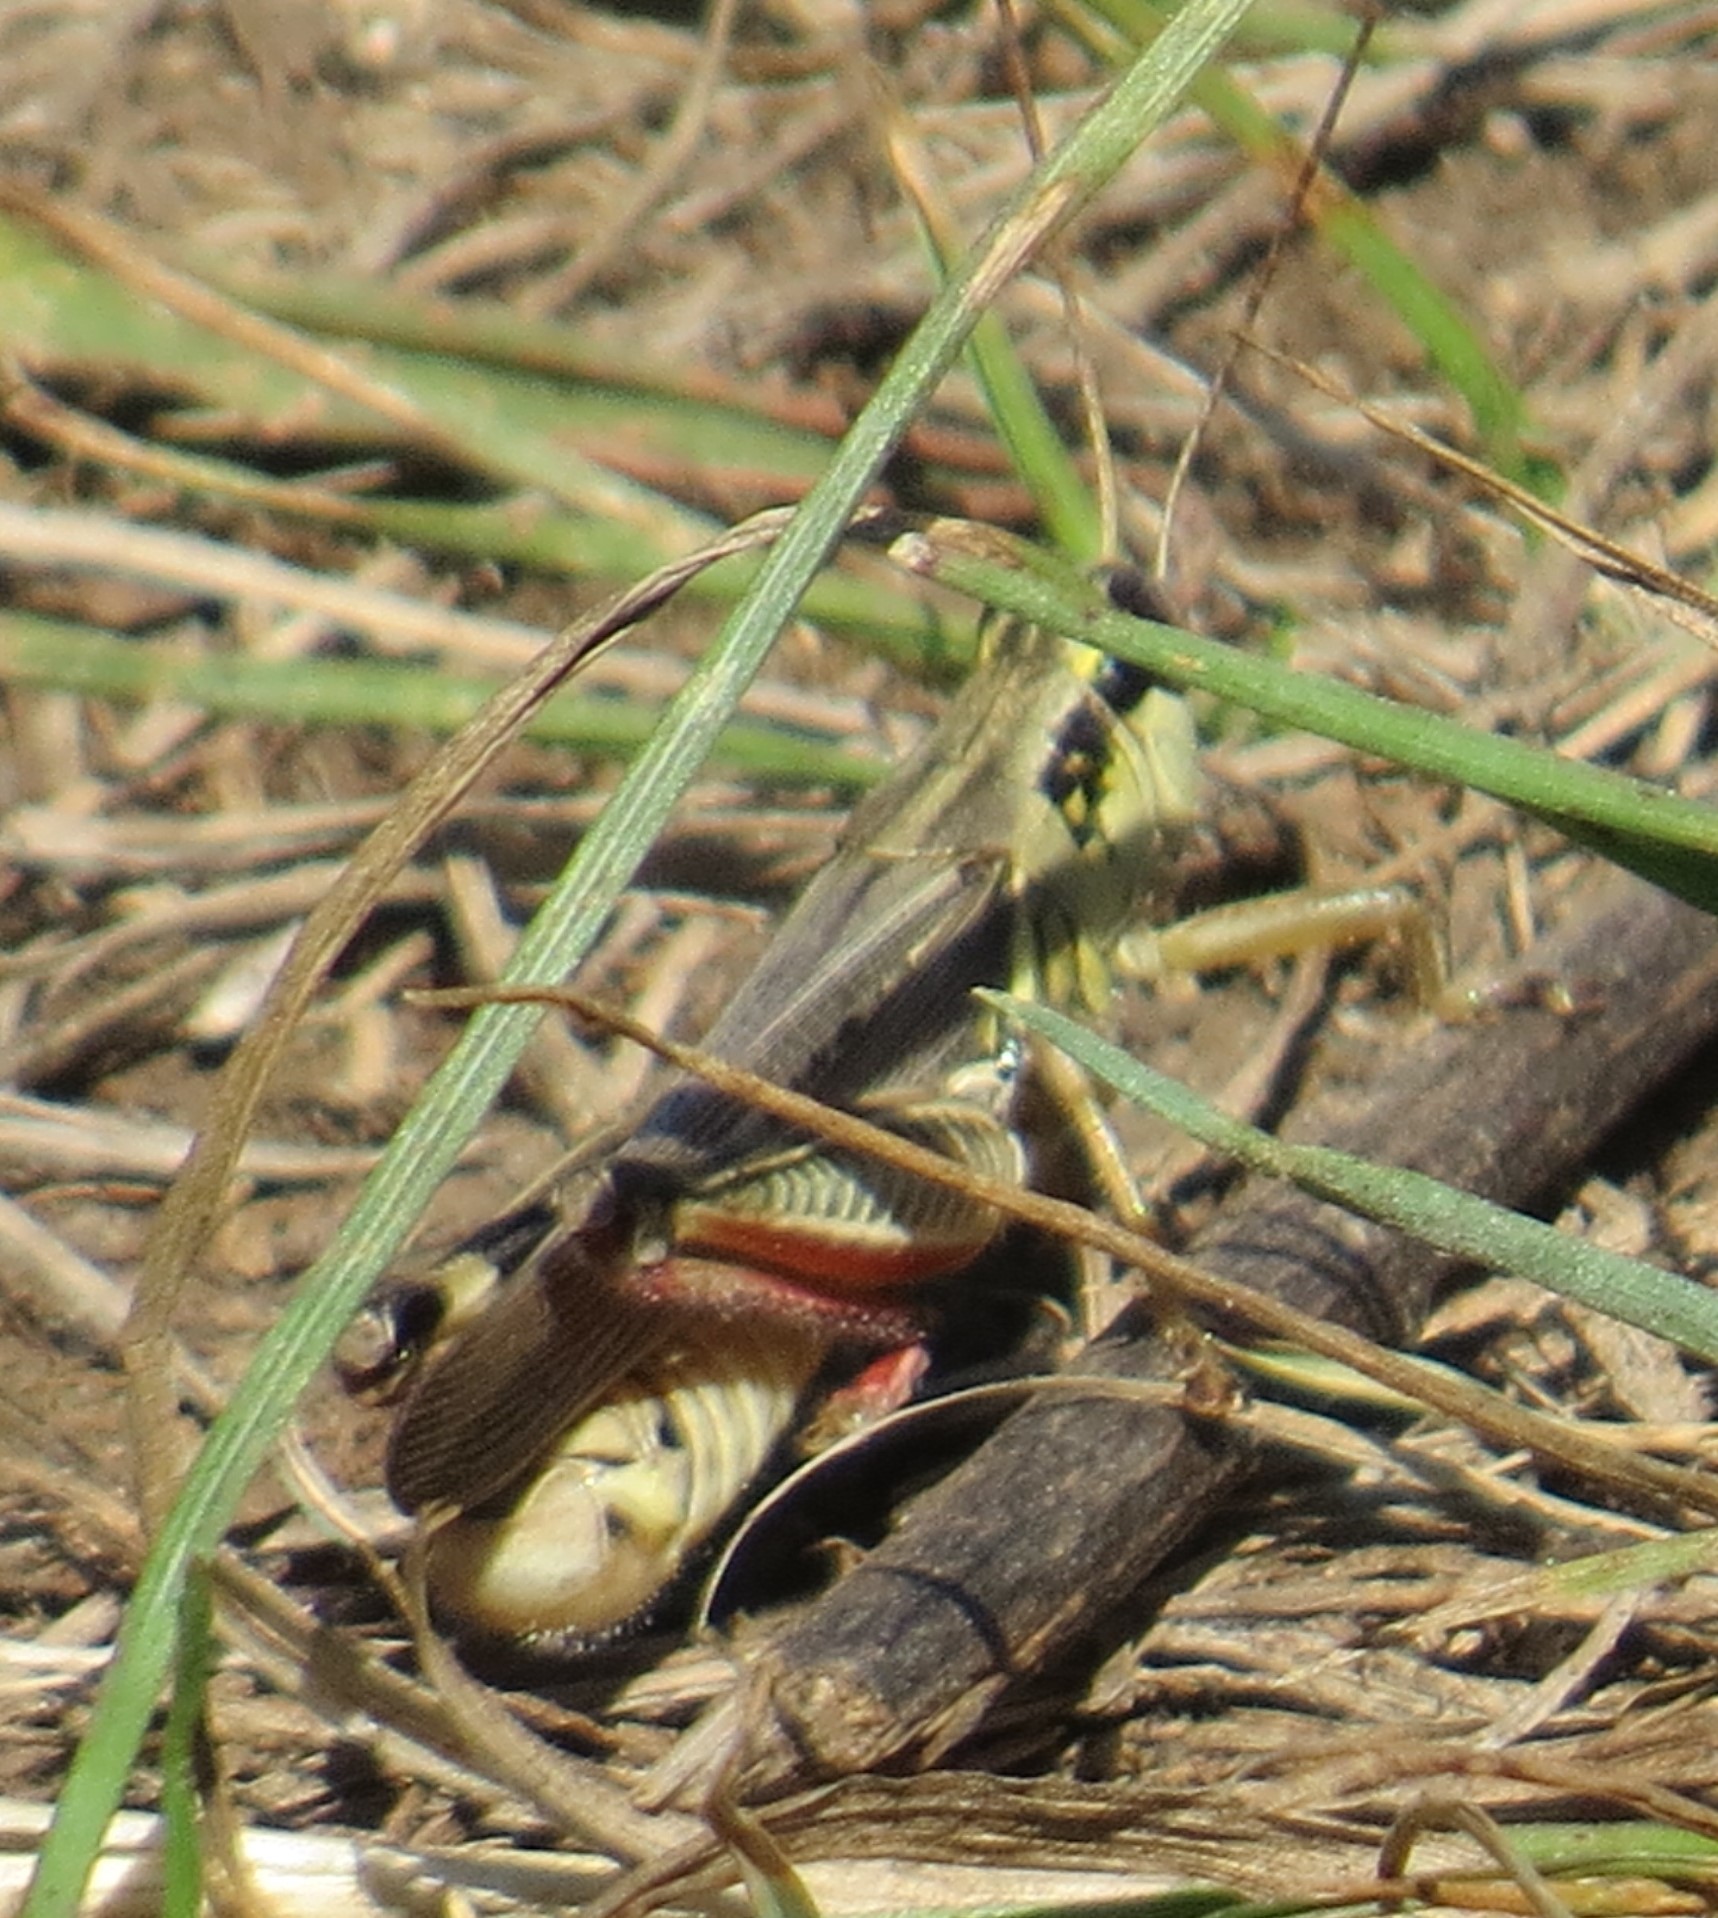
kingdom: Animalia
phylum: Arthropoda
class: Insecta
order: Orthoptera
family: Acrididae
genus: Melanoplus
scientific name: Melanoplus femurrubrum
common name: Red-legged grasshopper
